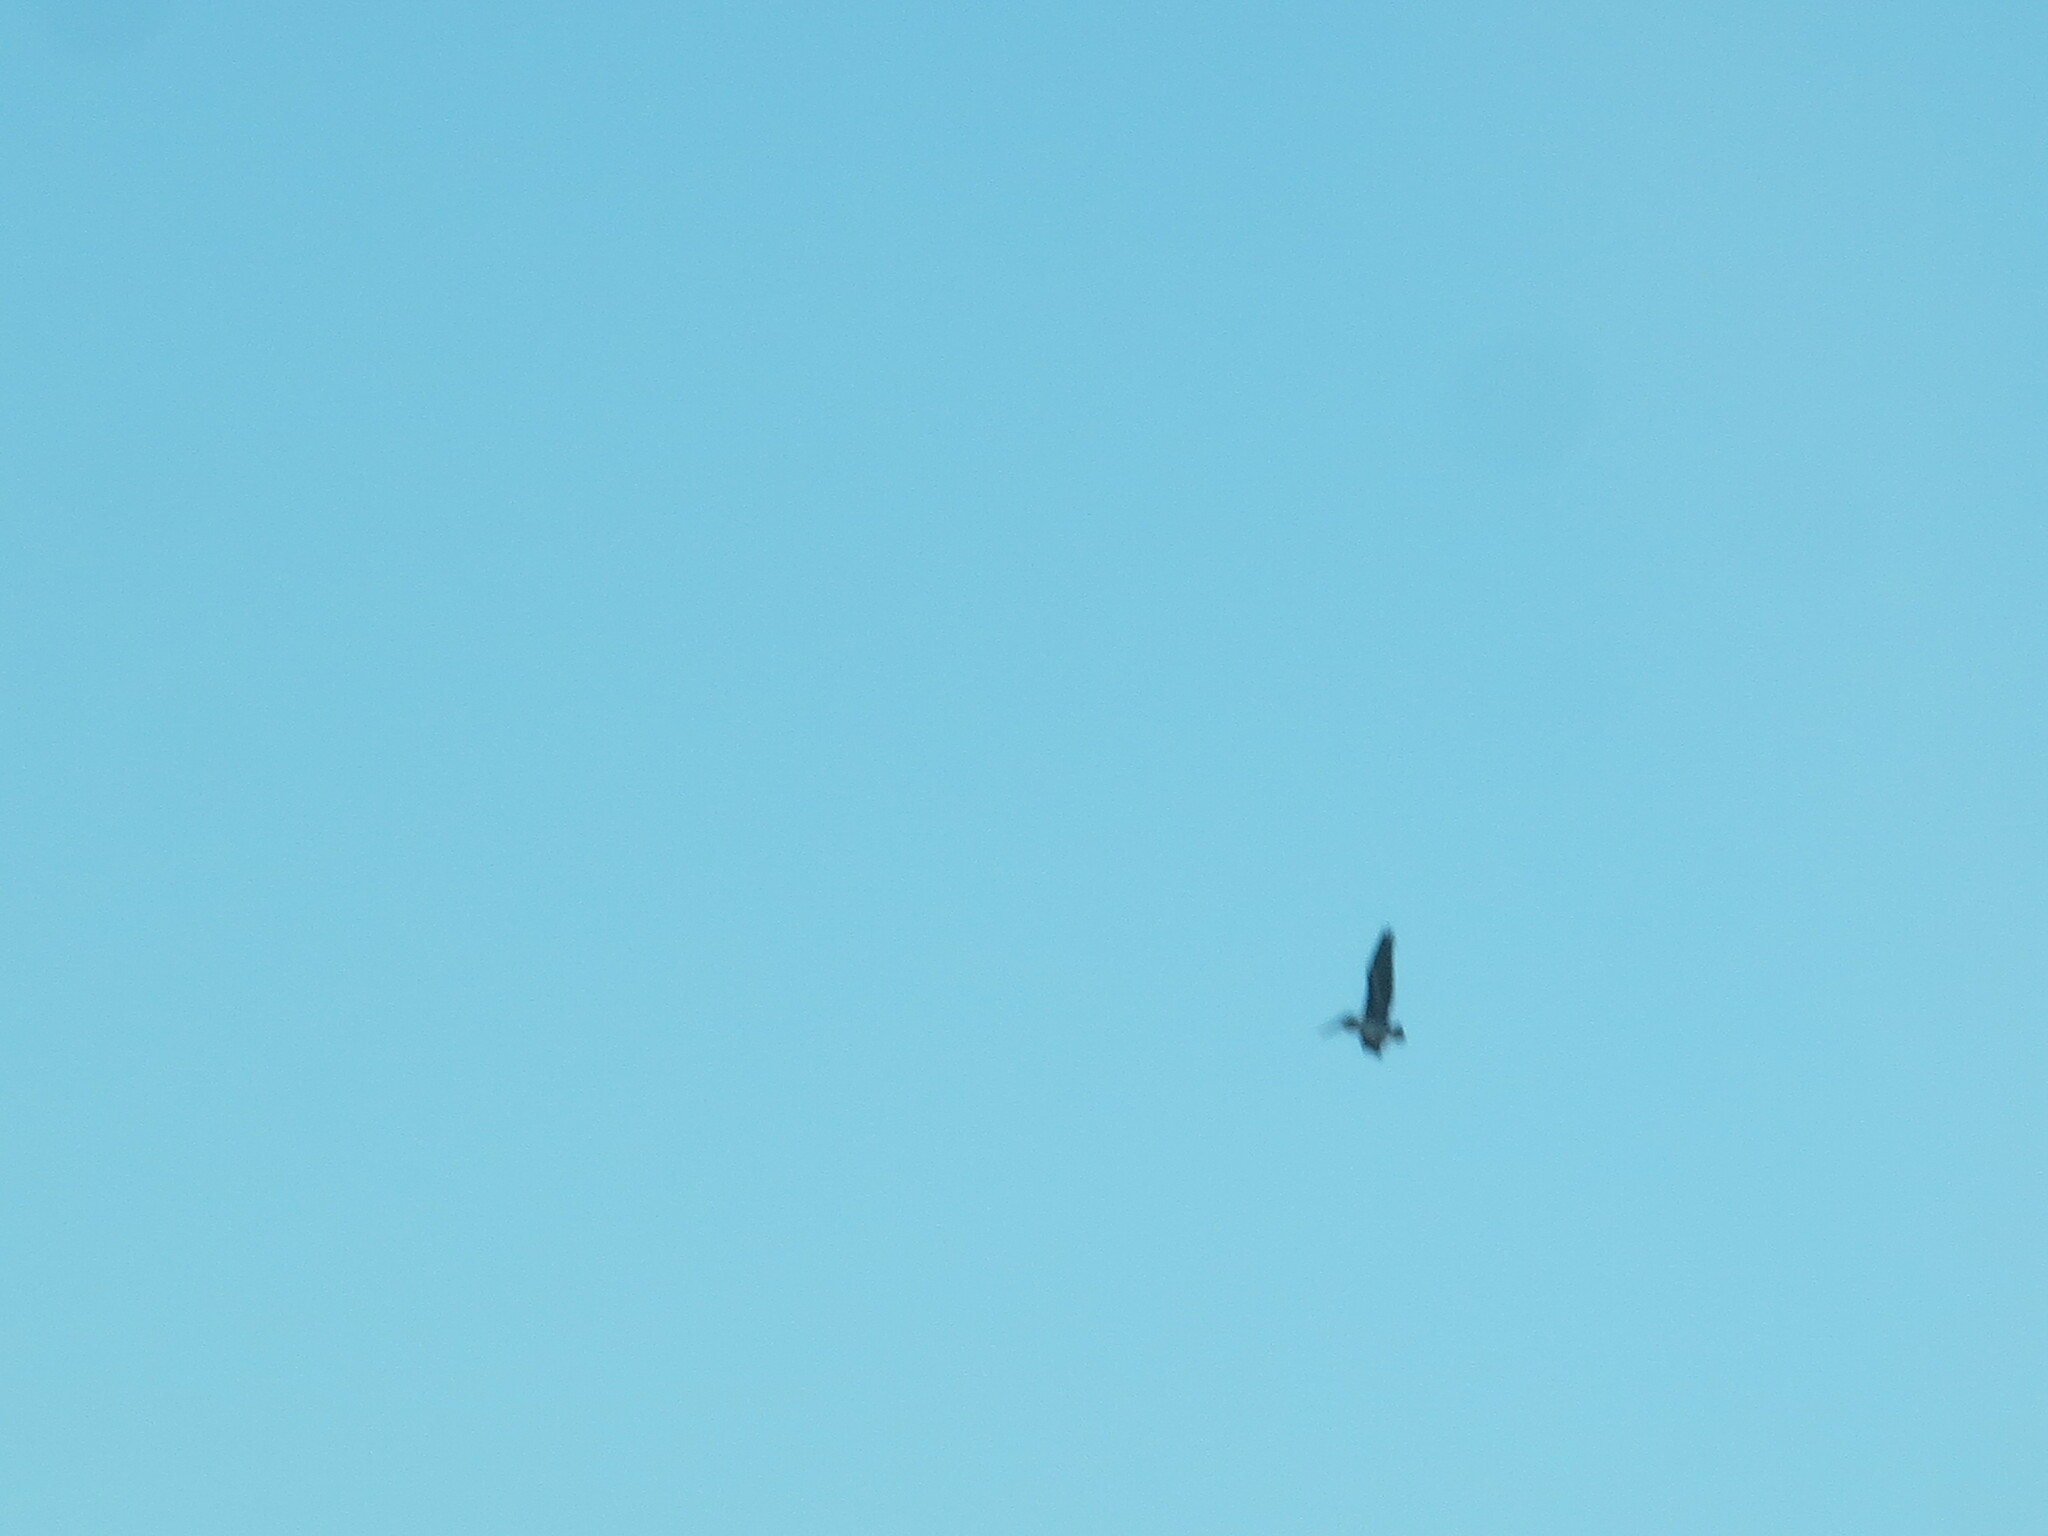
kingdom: Animalia
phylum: Chordata
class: Aves
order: Pelecaniformes
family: Pelecanidae
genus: Pelecanus
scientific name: Pelecanus occidentalis
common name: Brown pelican
